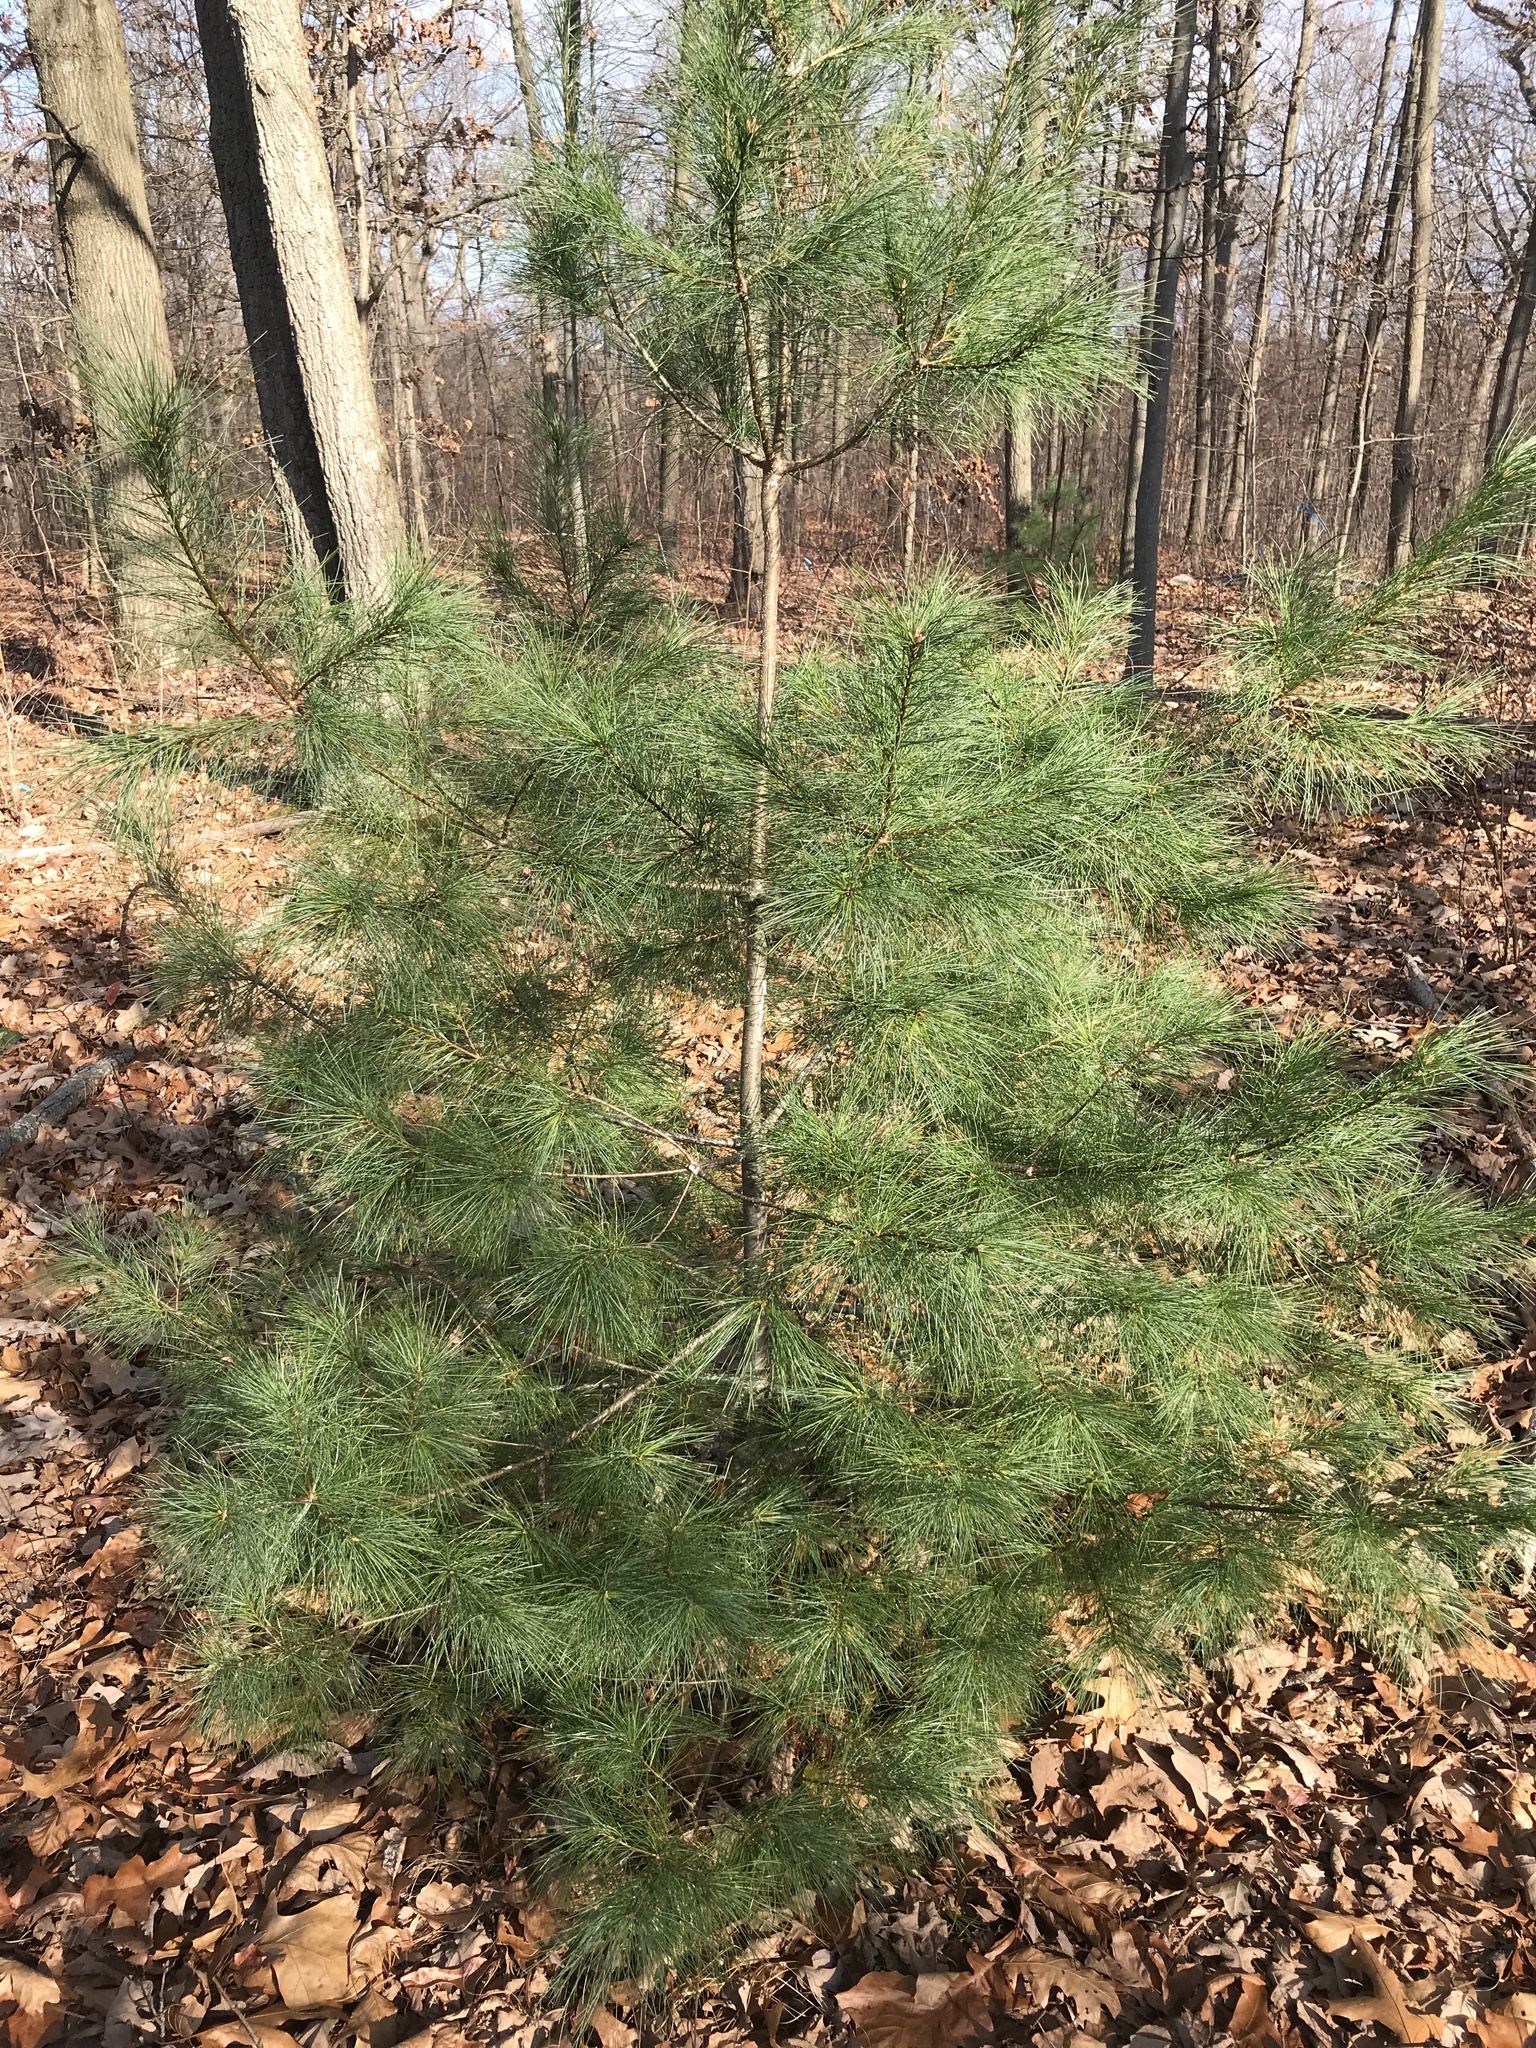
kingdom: Plantae
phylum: Tracheophyta
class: Pinopsida
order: Pinales
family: Pinaceae
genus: Pinus
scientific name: Pinus strobus
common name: Weymouth pine
